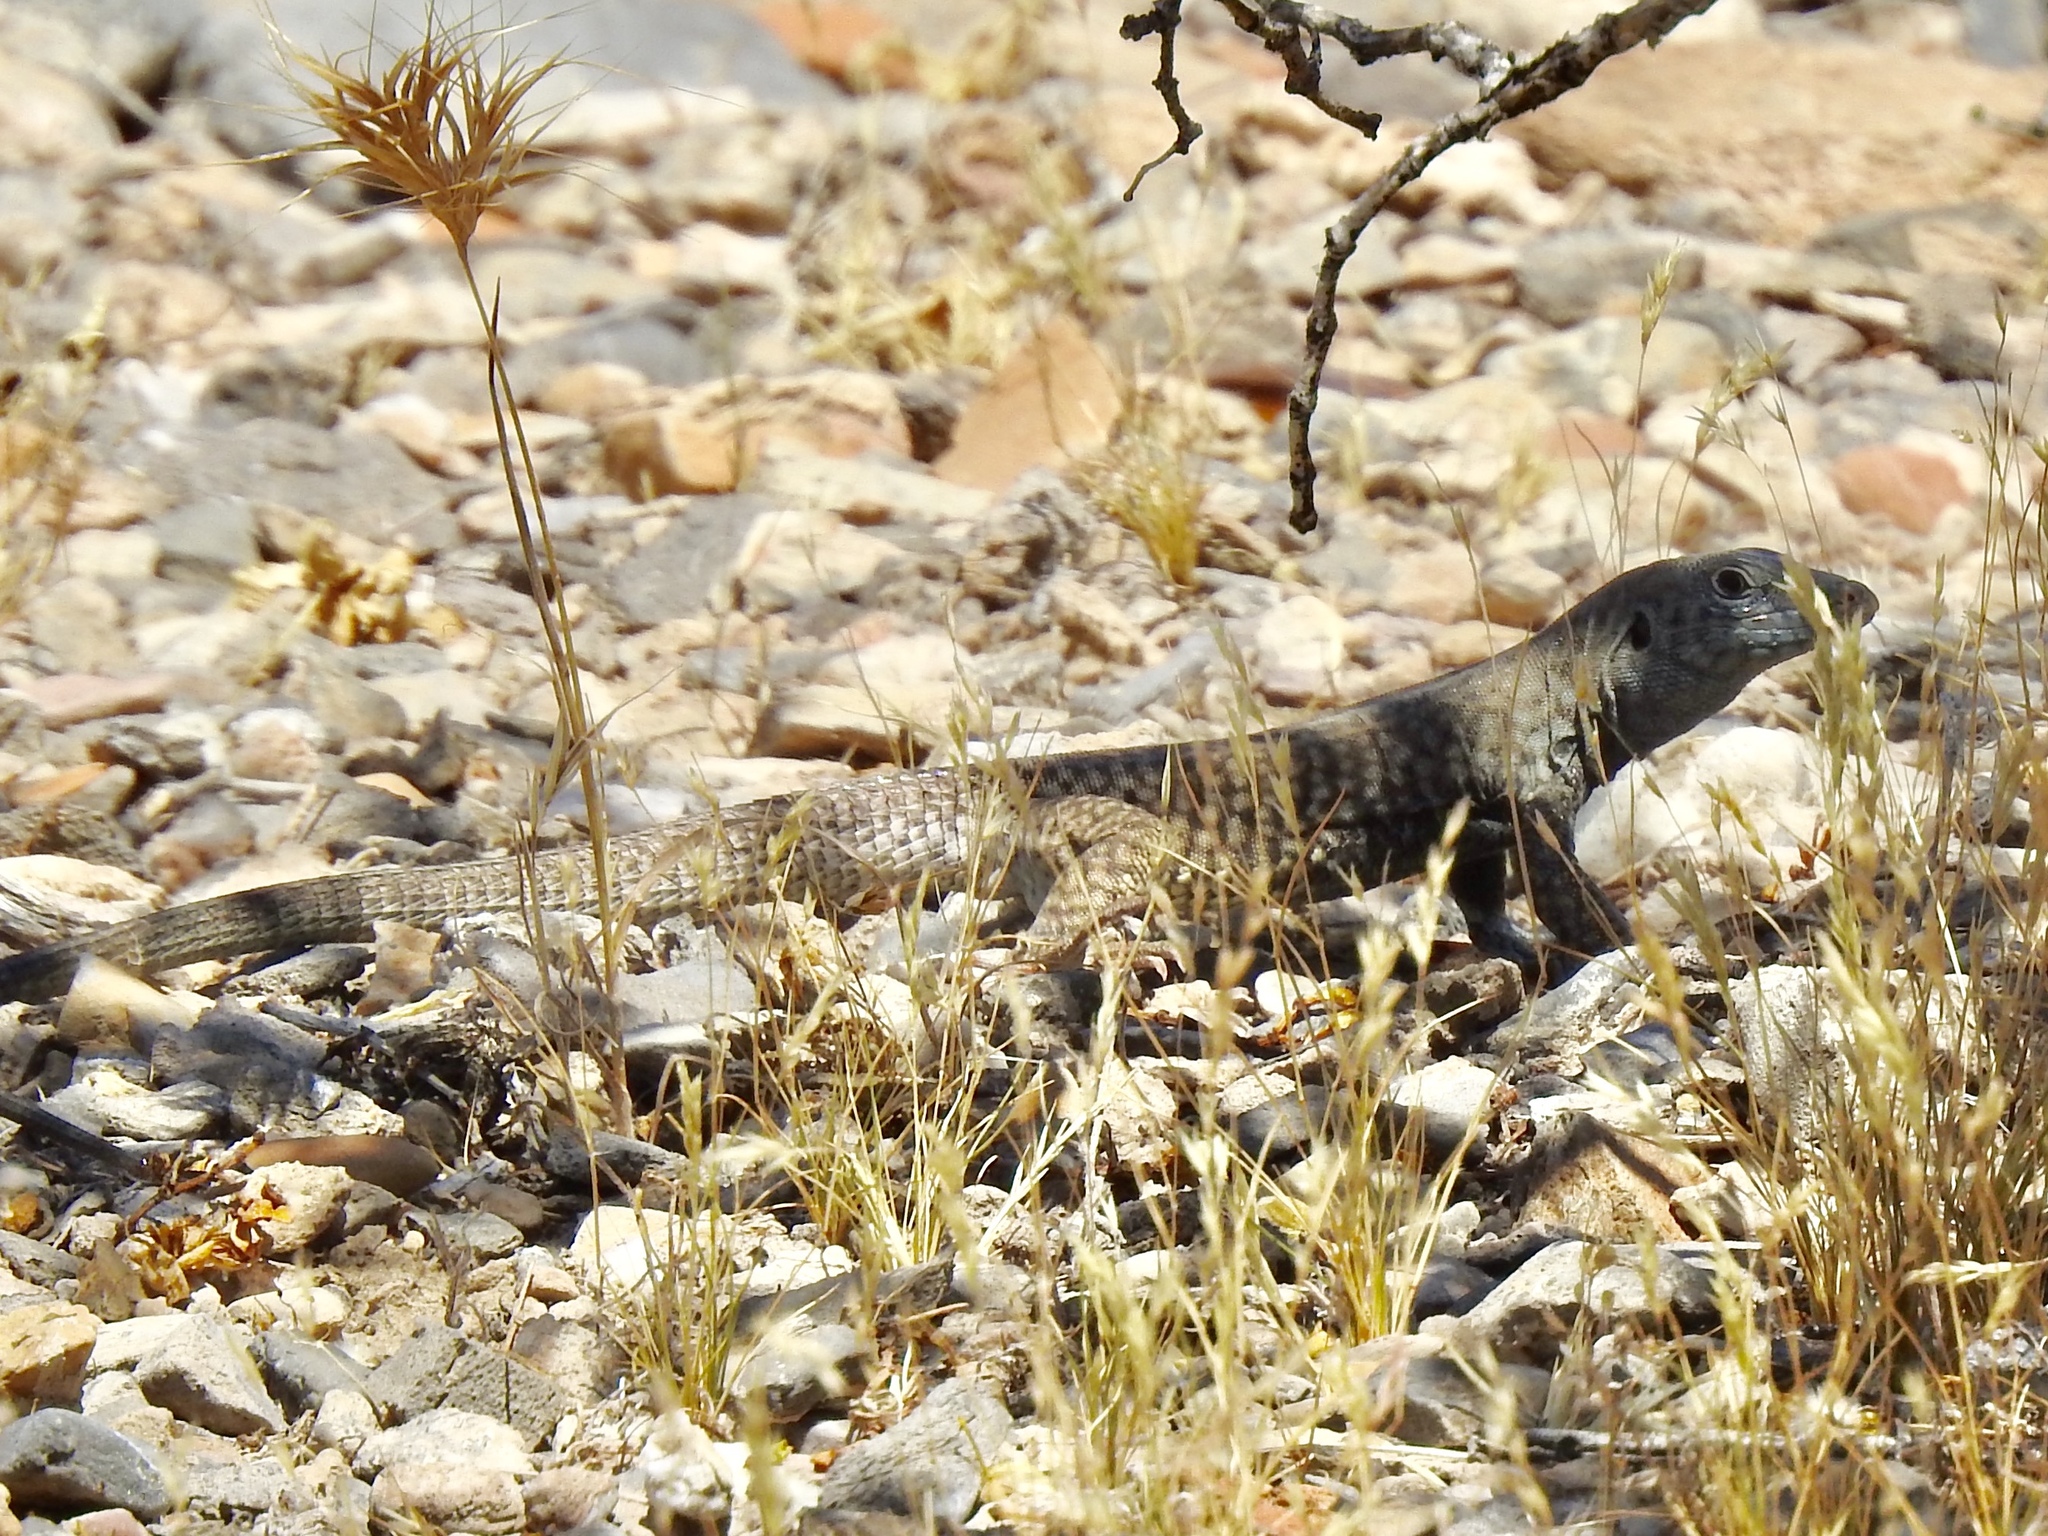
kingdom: Animalia
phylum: Chordata
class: Squamata
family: Teiidae
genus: Aspidoscelis
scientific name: Aspidoscelis tigris
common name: Tiger whiptail
